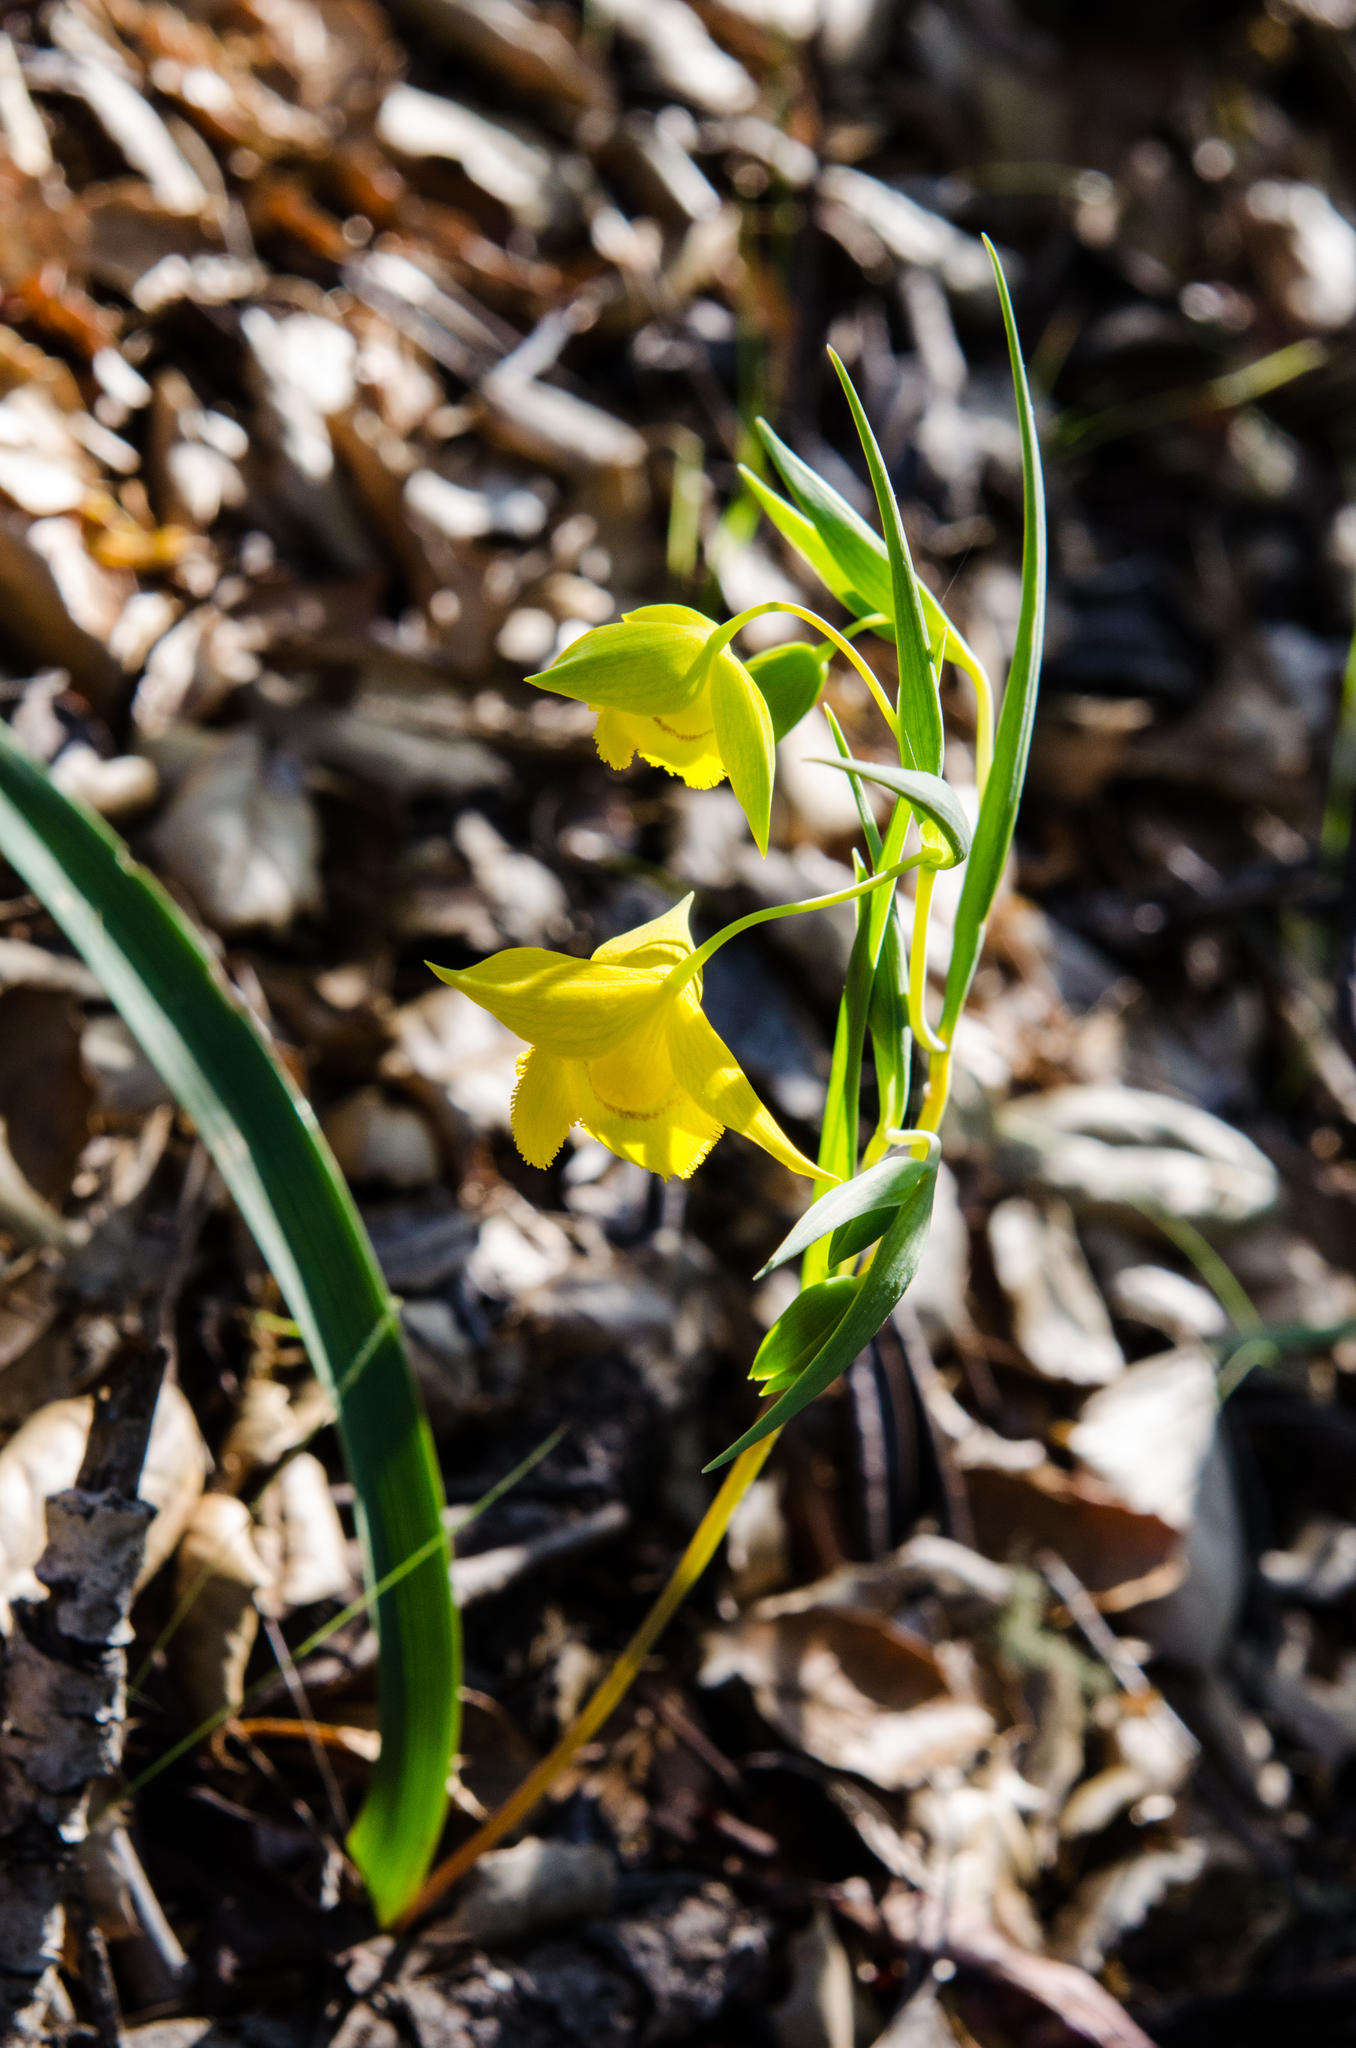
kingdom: Plantae
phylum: Tracheophyta
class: Liliopsida
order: Liliales
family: Liliaceae
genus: Calochortus
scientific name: Calochortus amabilis
